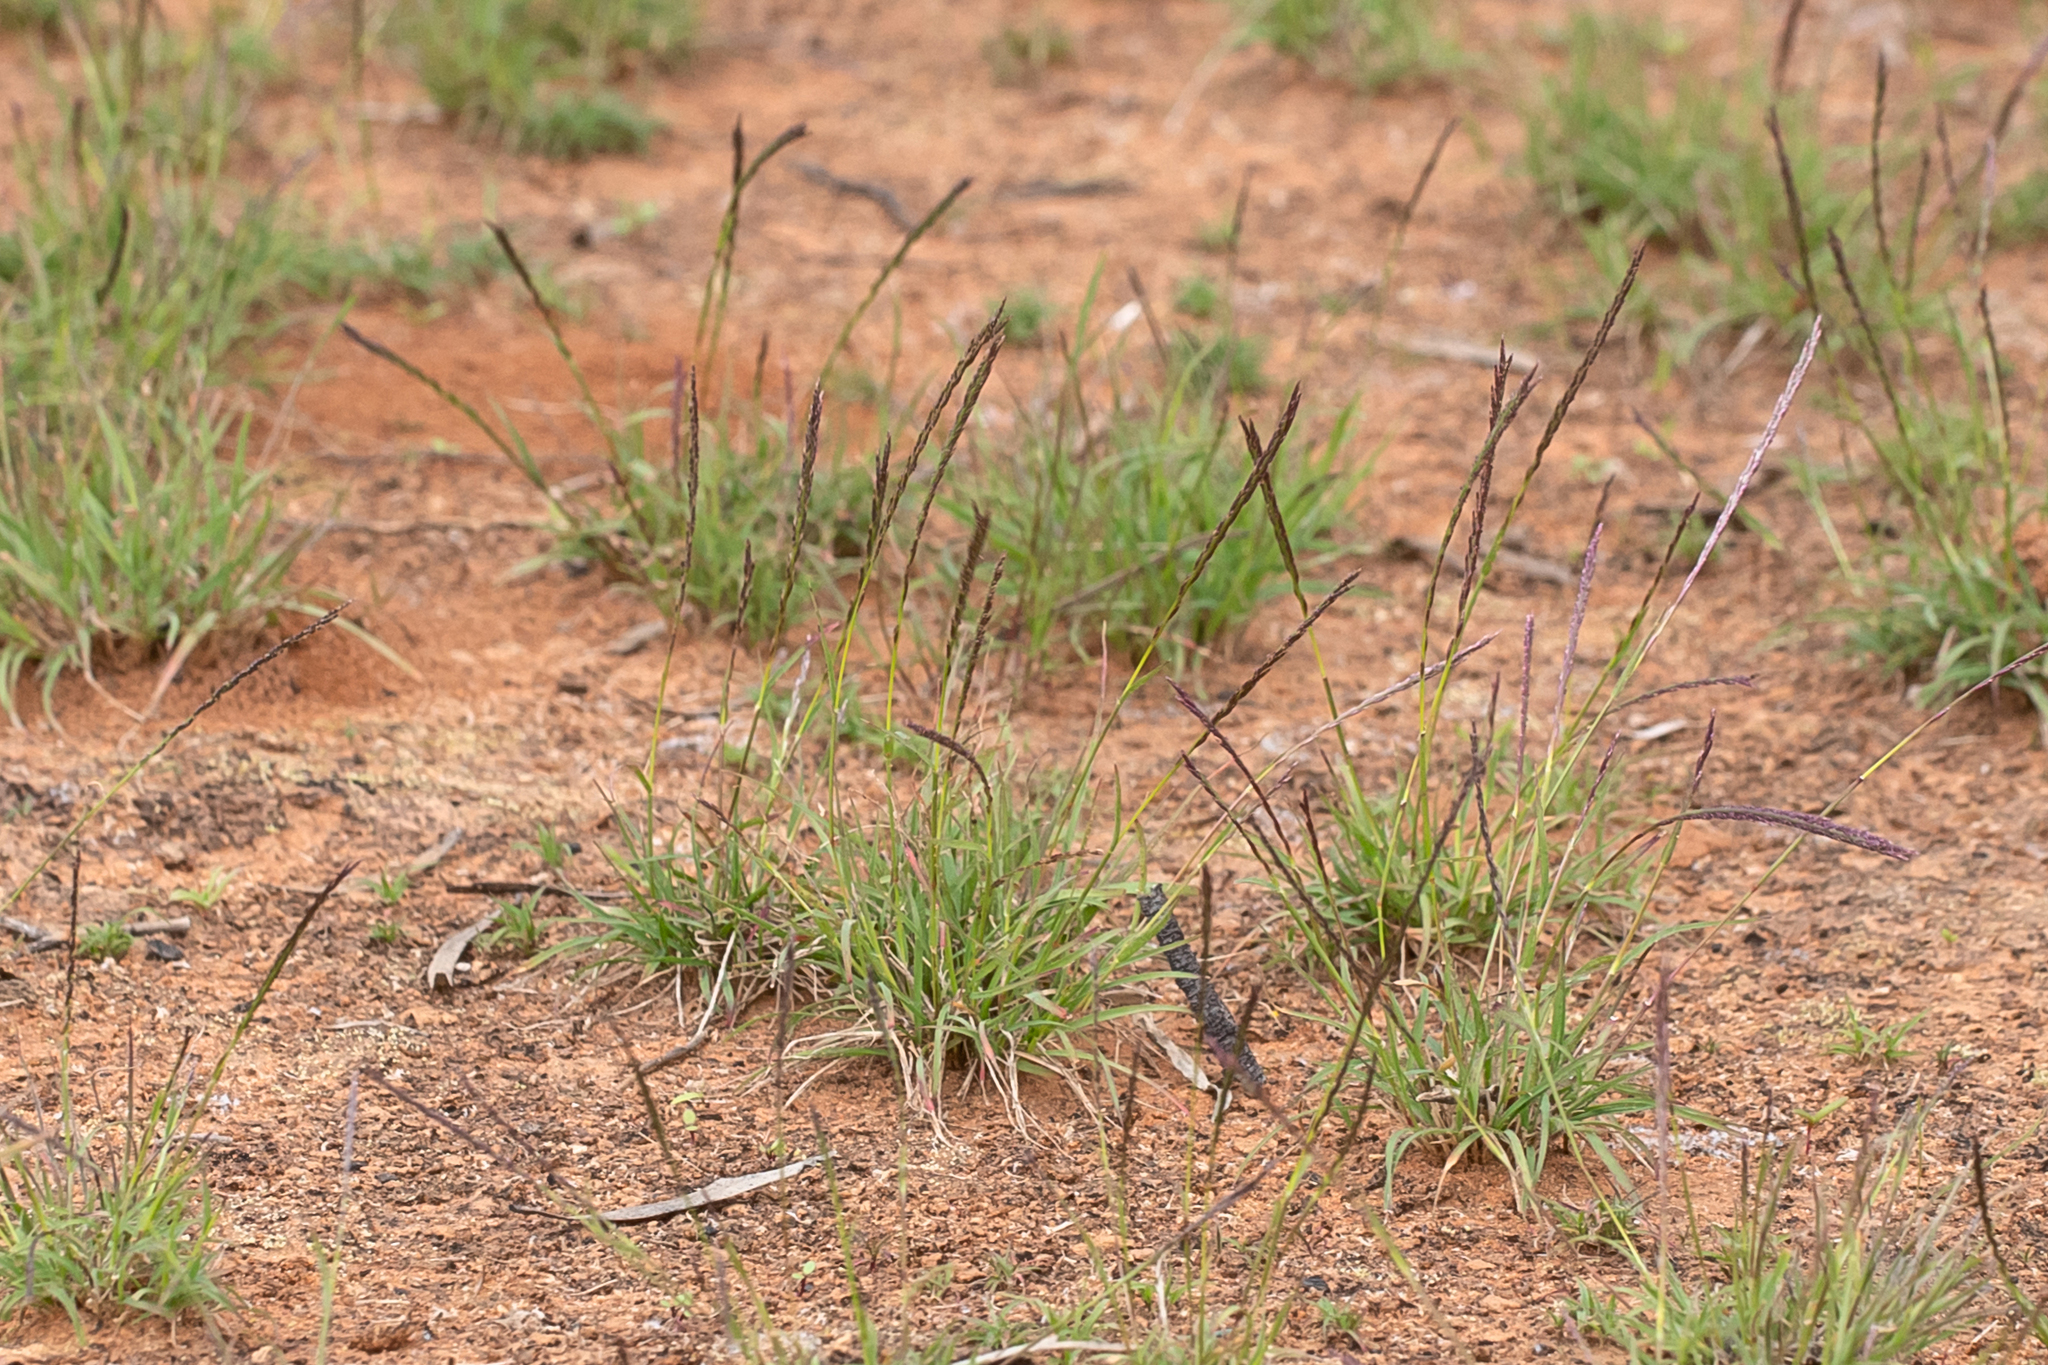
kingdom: Plantae
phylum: Tracheophyta
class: Liliopsida
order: Poales
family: Poaceae
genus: Tripogonella
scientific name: Tripogonella loliiformis
